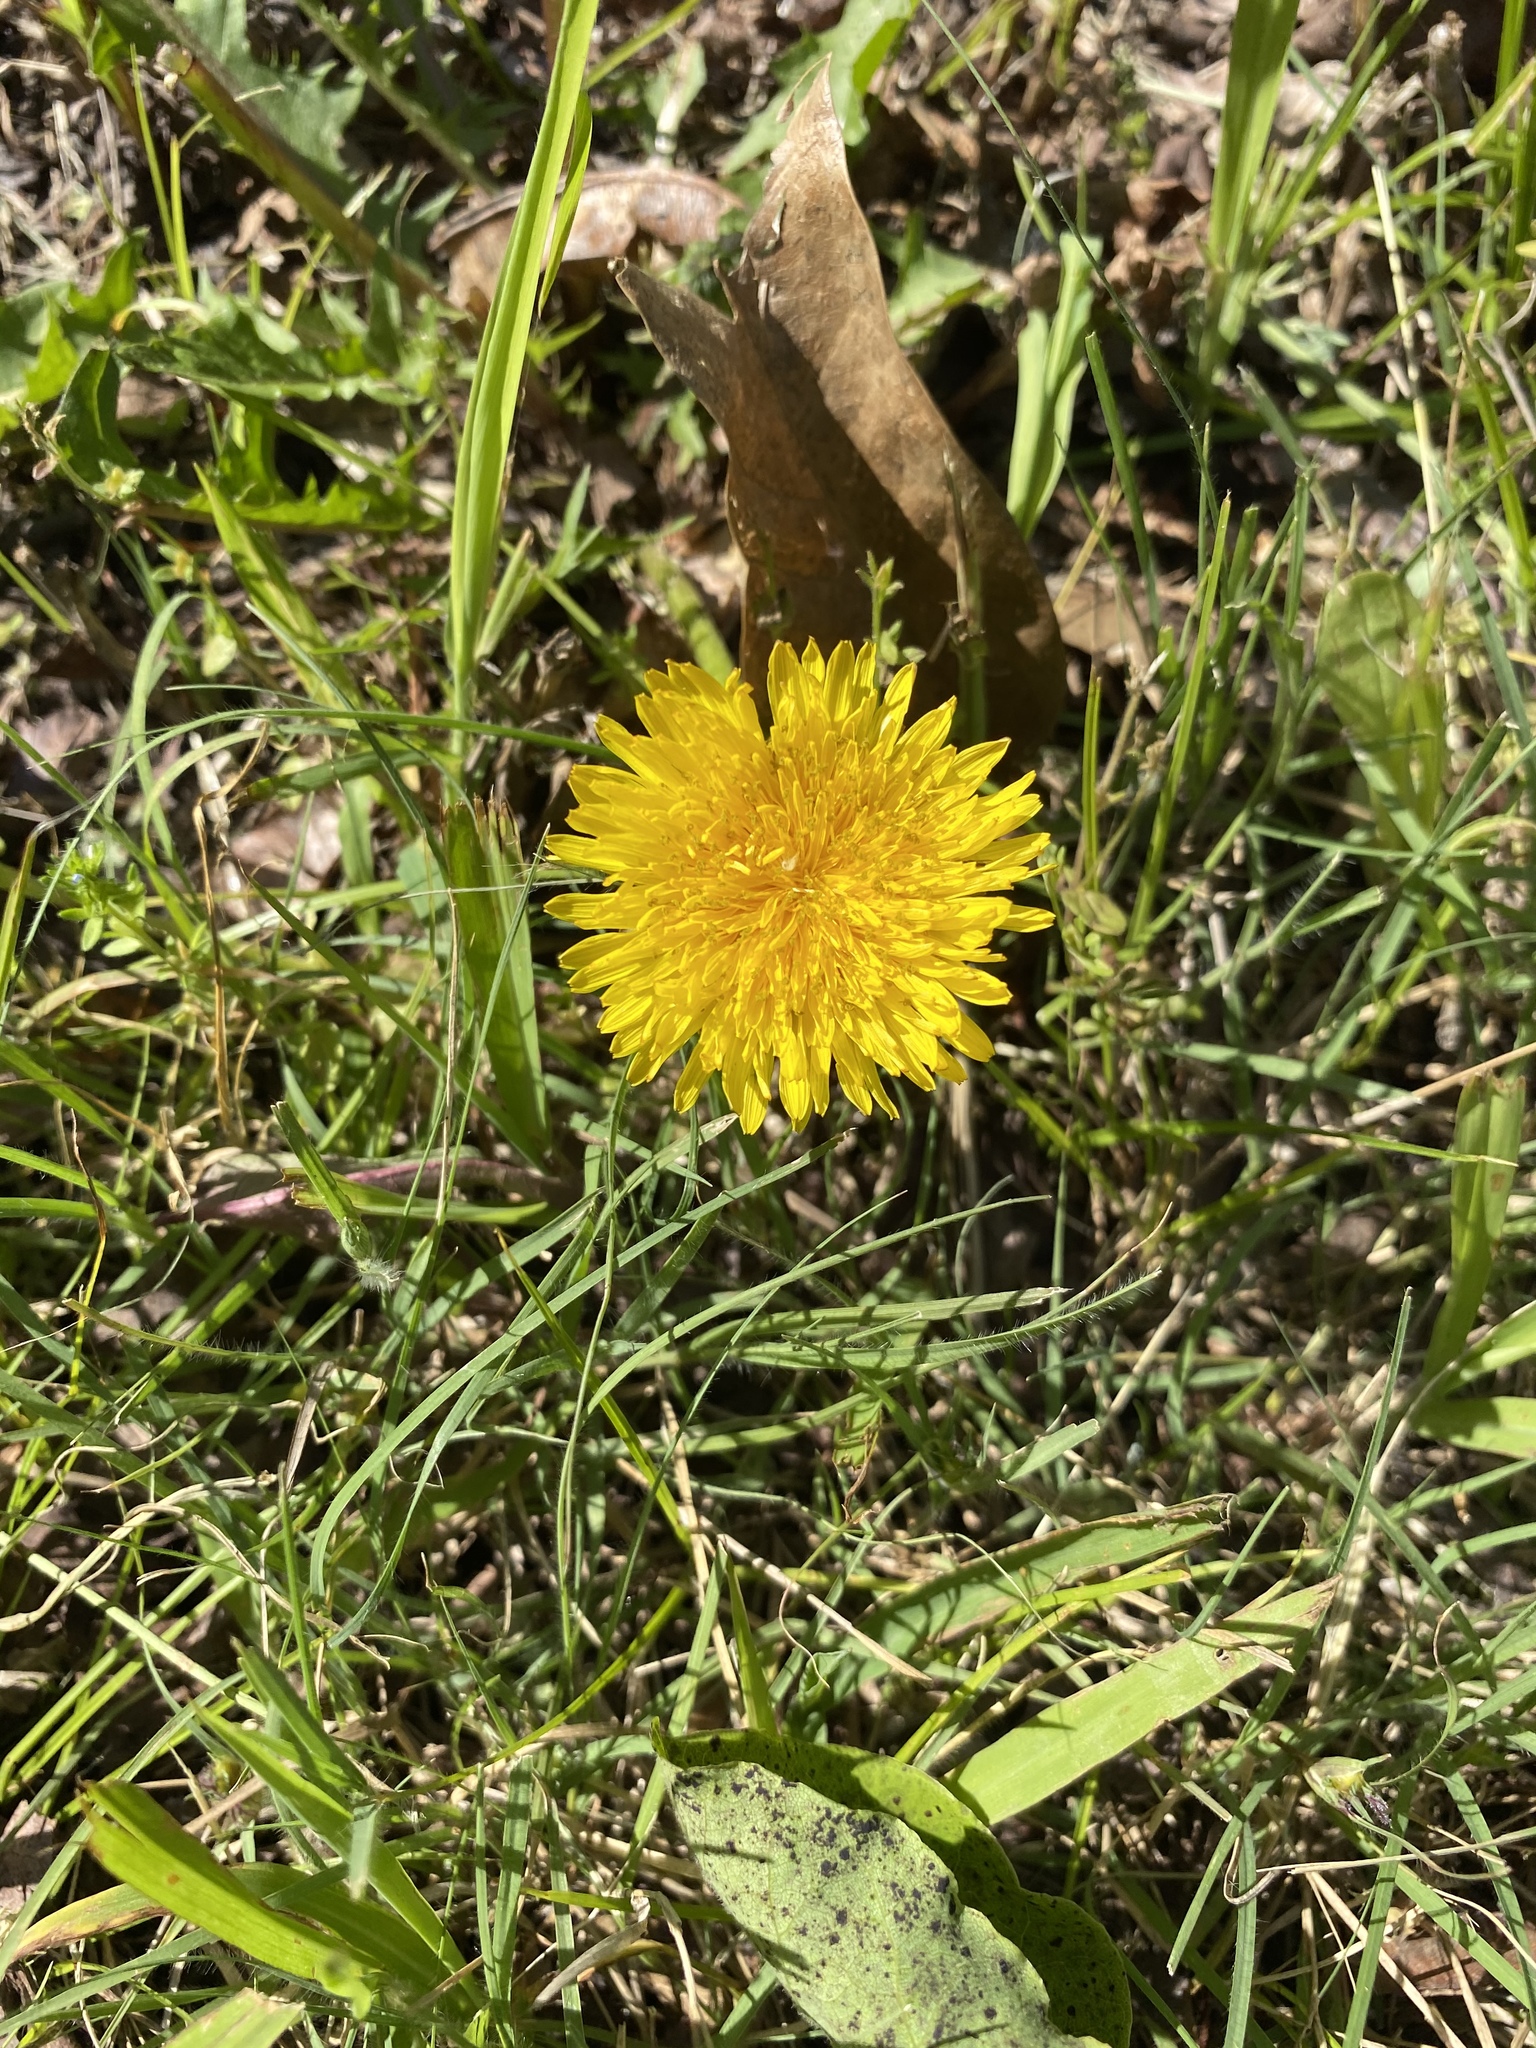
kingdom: Plantae
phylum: Tracheophyta
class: Magnoliopsida
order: Asterales
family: Asteraceae
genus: Taraxacum
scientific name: Taraxacum
